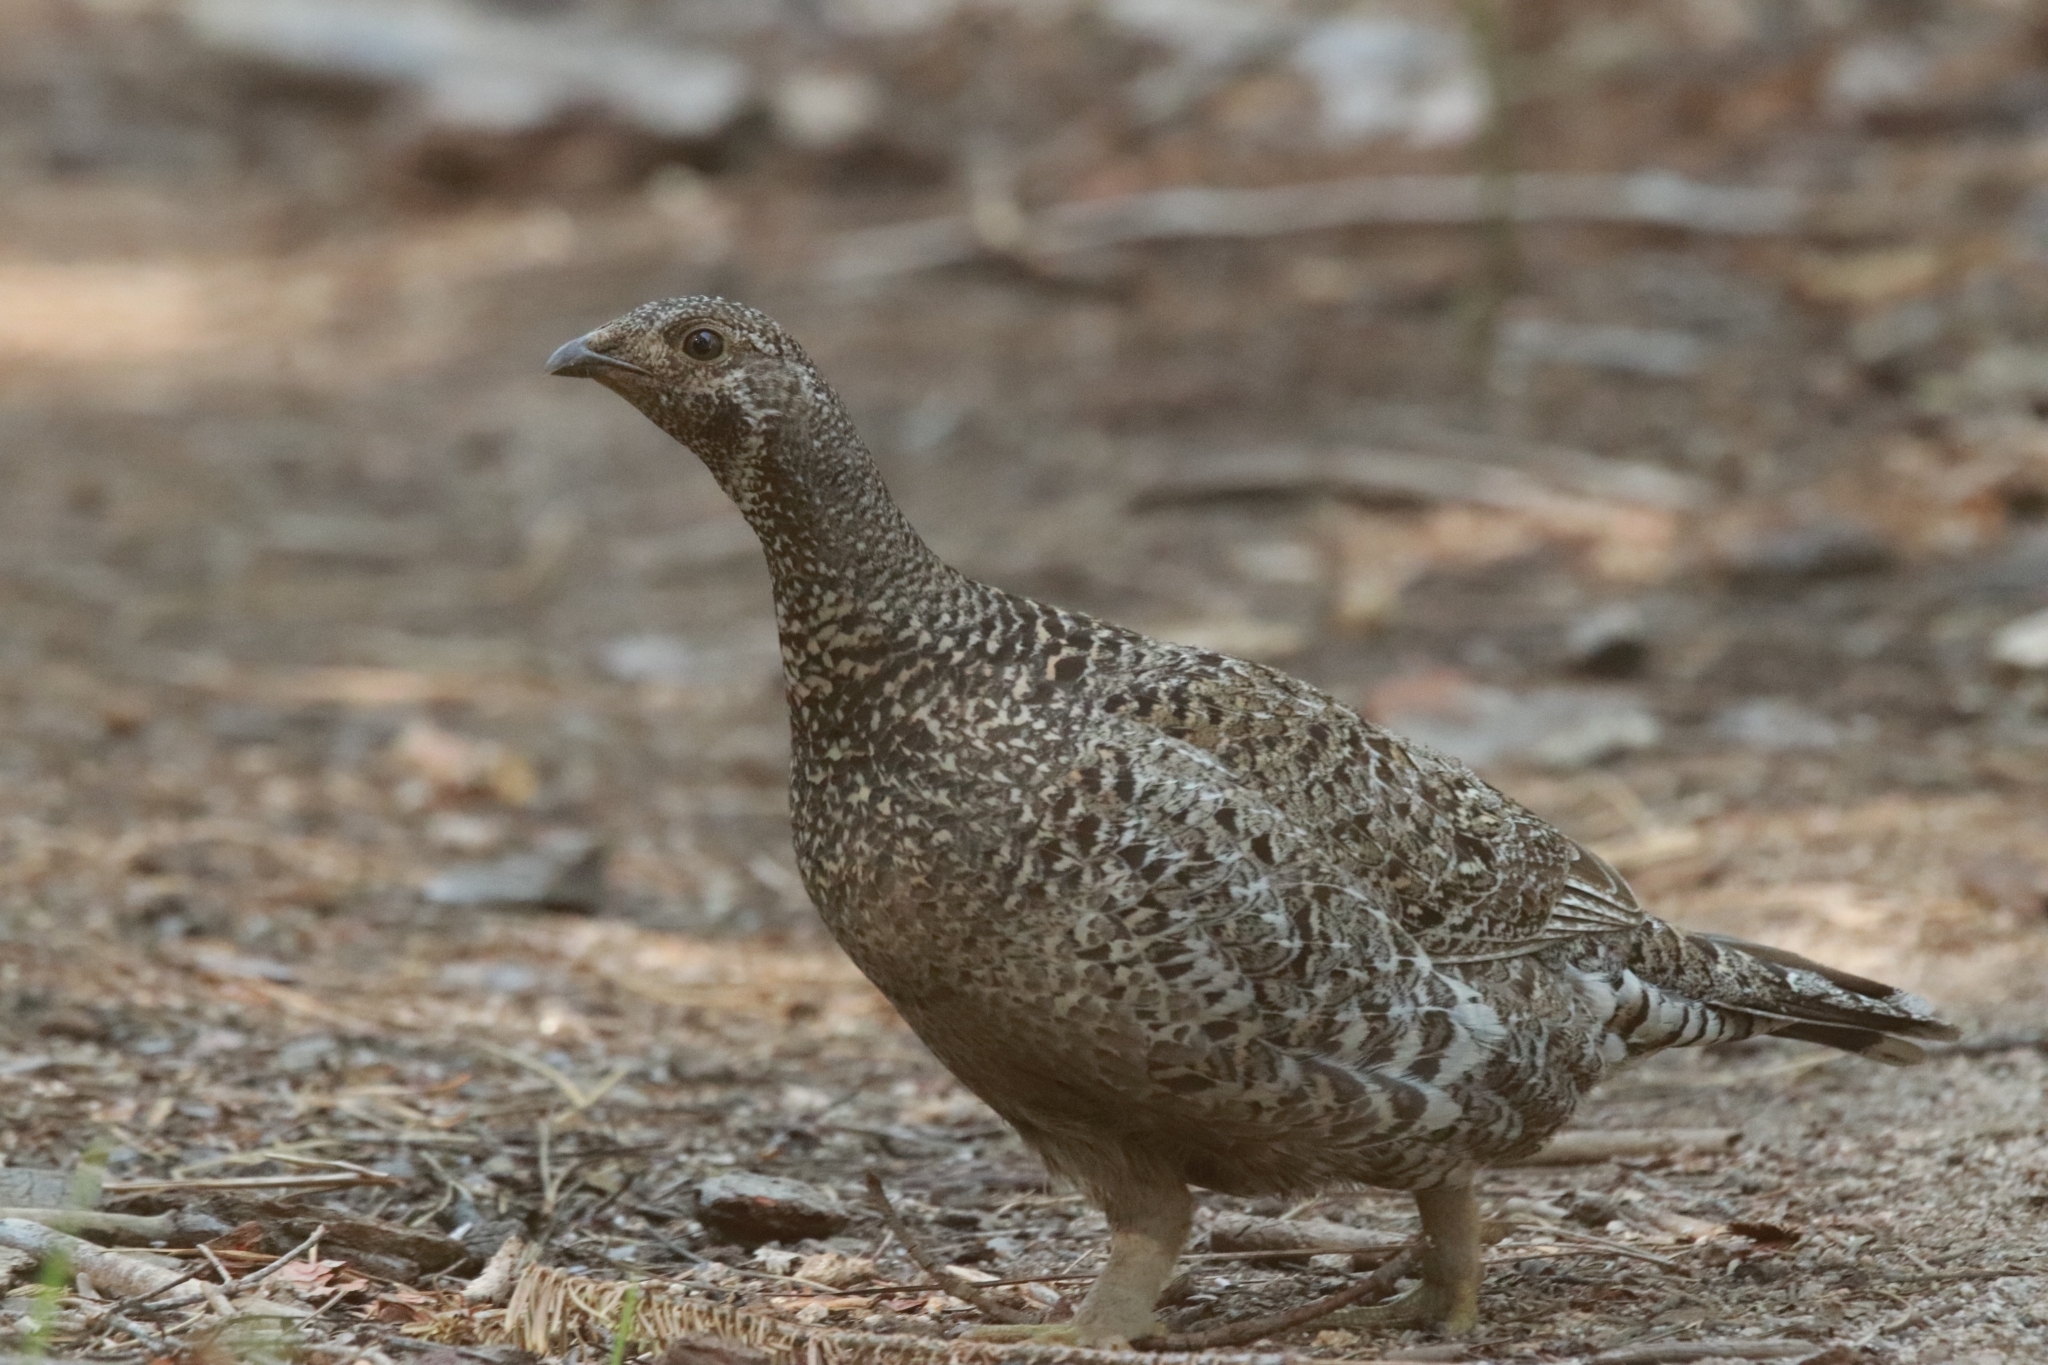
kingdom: Animalia
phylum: Chordata
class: Aves
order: Galliformes
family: Phasianidae
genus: Dendragapus
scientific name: Dendragapus fuliginosus
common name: Sooty grouse
